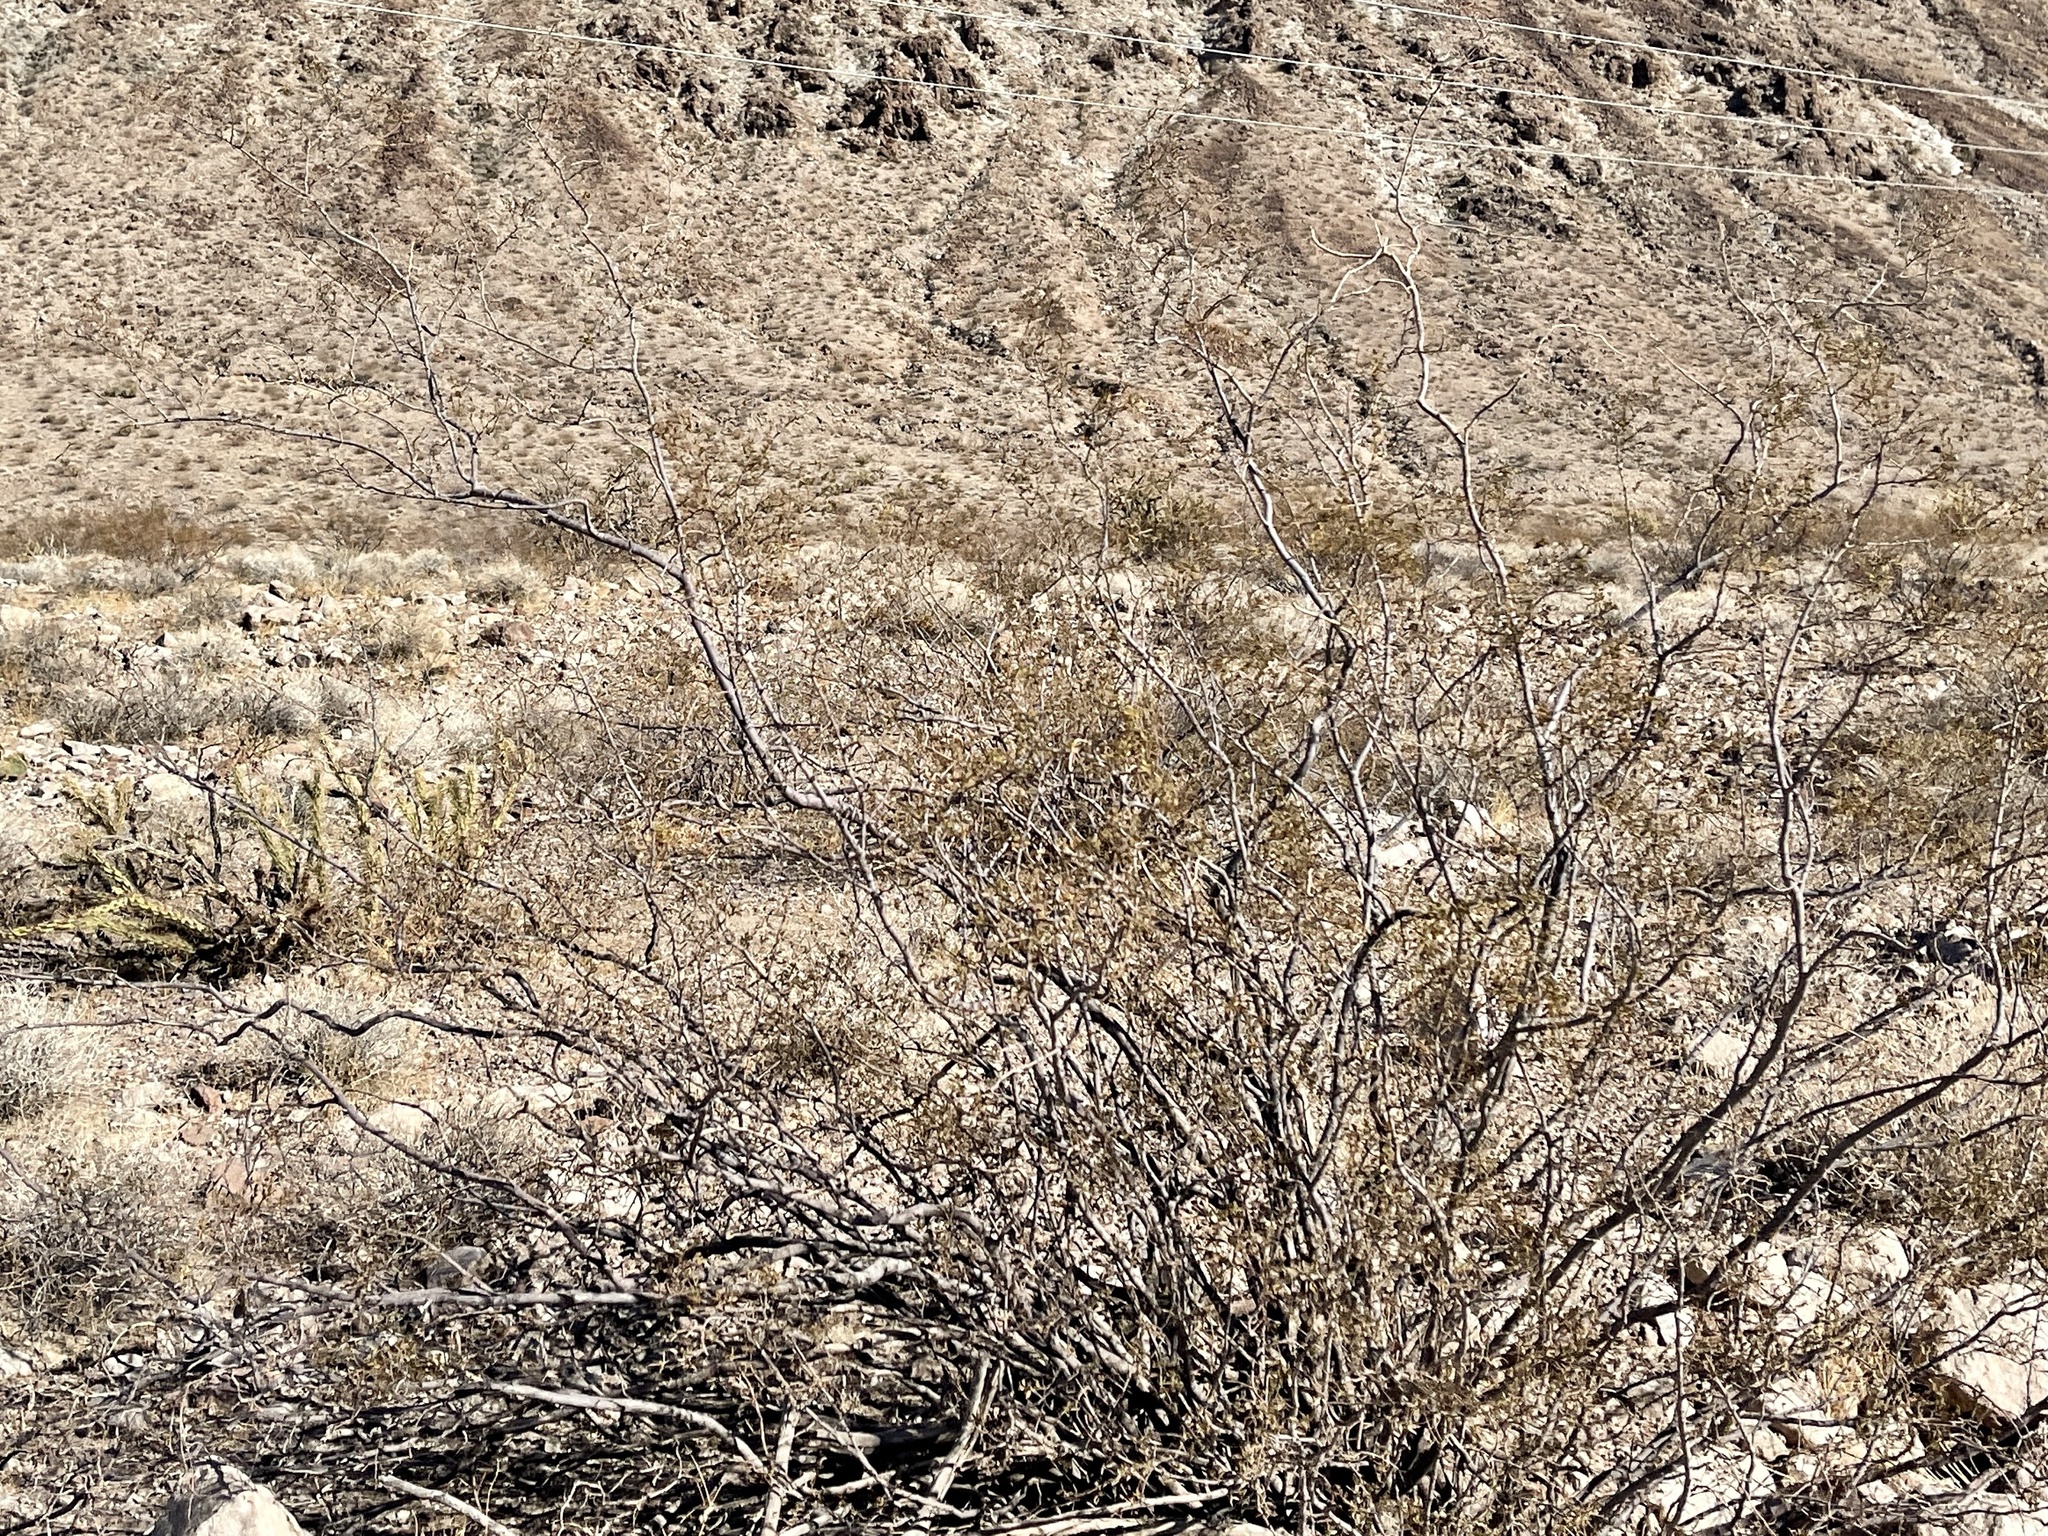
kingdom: Plantae
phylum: Tracheophyta
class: Magnoliopsida
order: Zygophyllales
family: Zygophyllaceae
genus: Larrea
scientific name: Larrea tridentata
